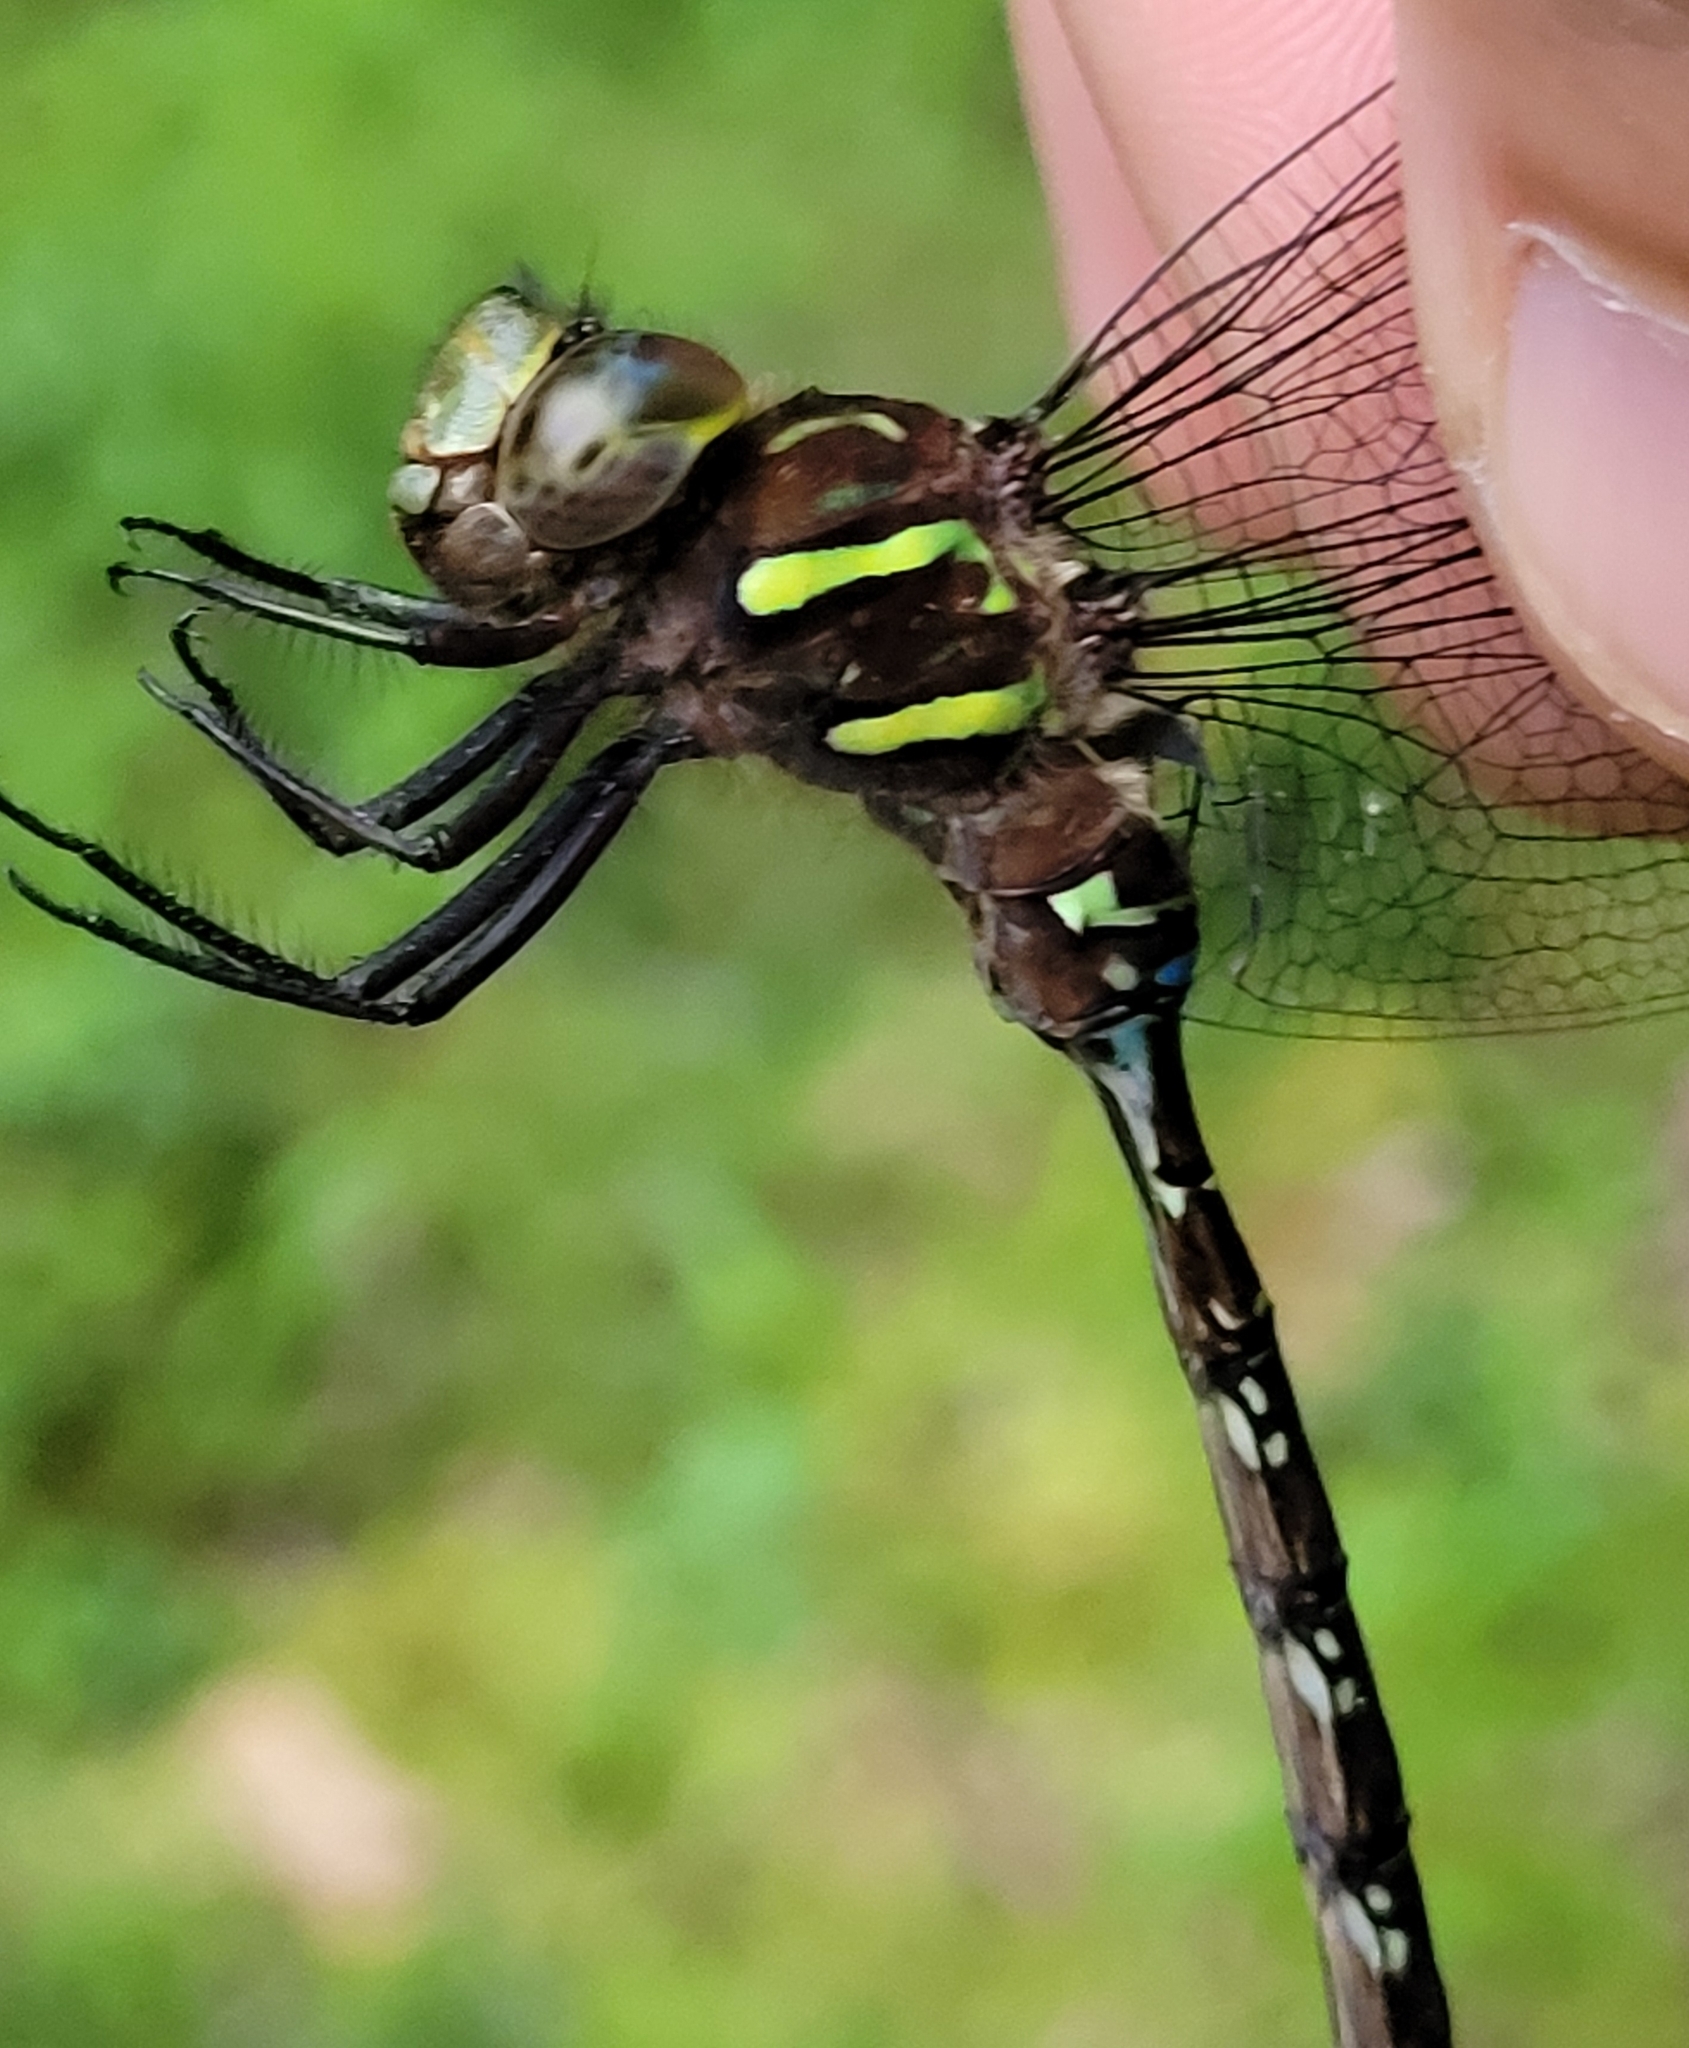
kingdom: Animalia
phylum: Arthropoda
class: Insecta
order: Odonata
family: Aeshnidae
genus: Aeshna
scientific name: Aeshna umbrosa
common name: Shadow darner
